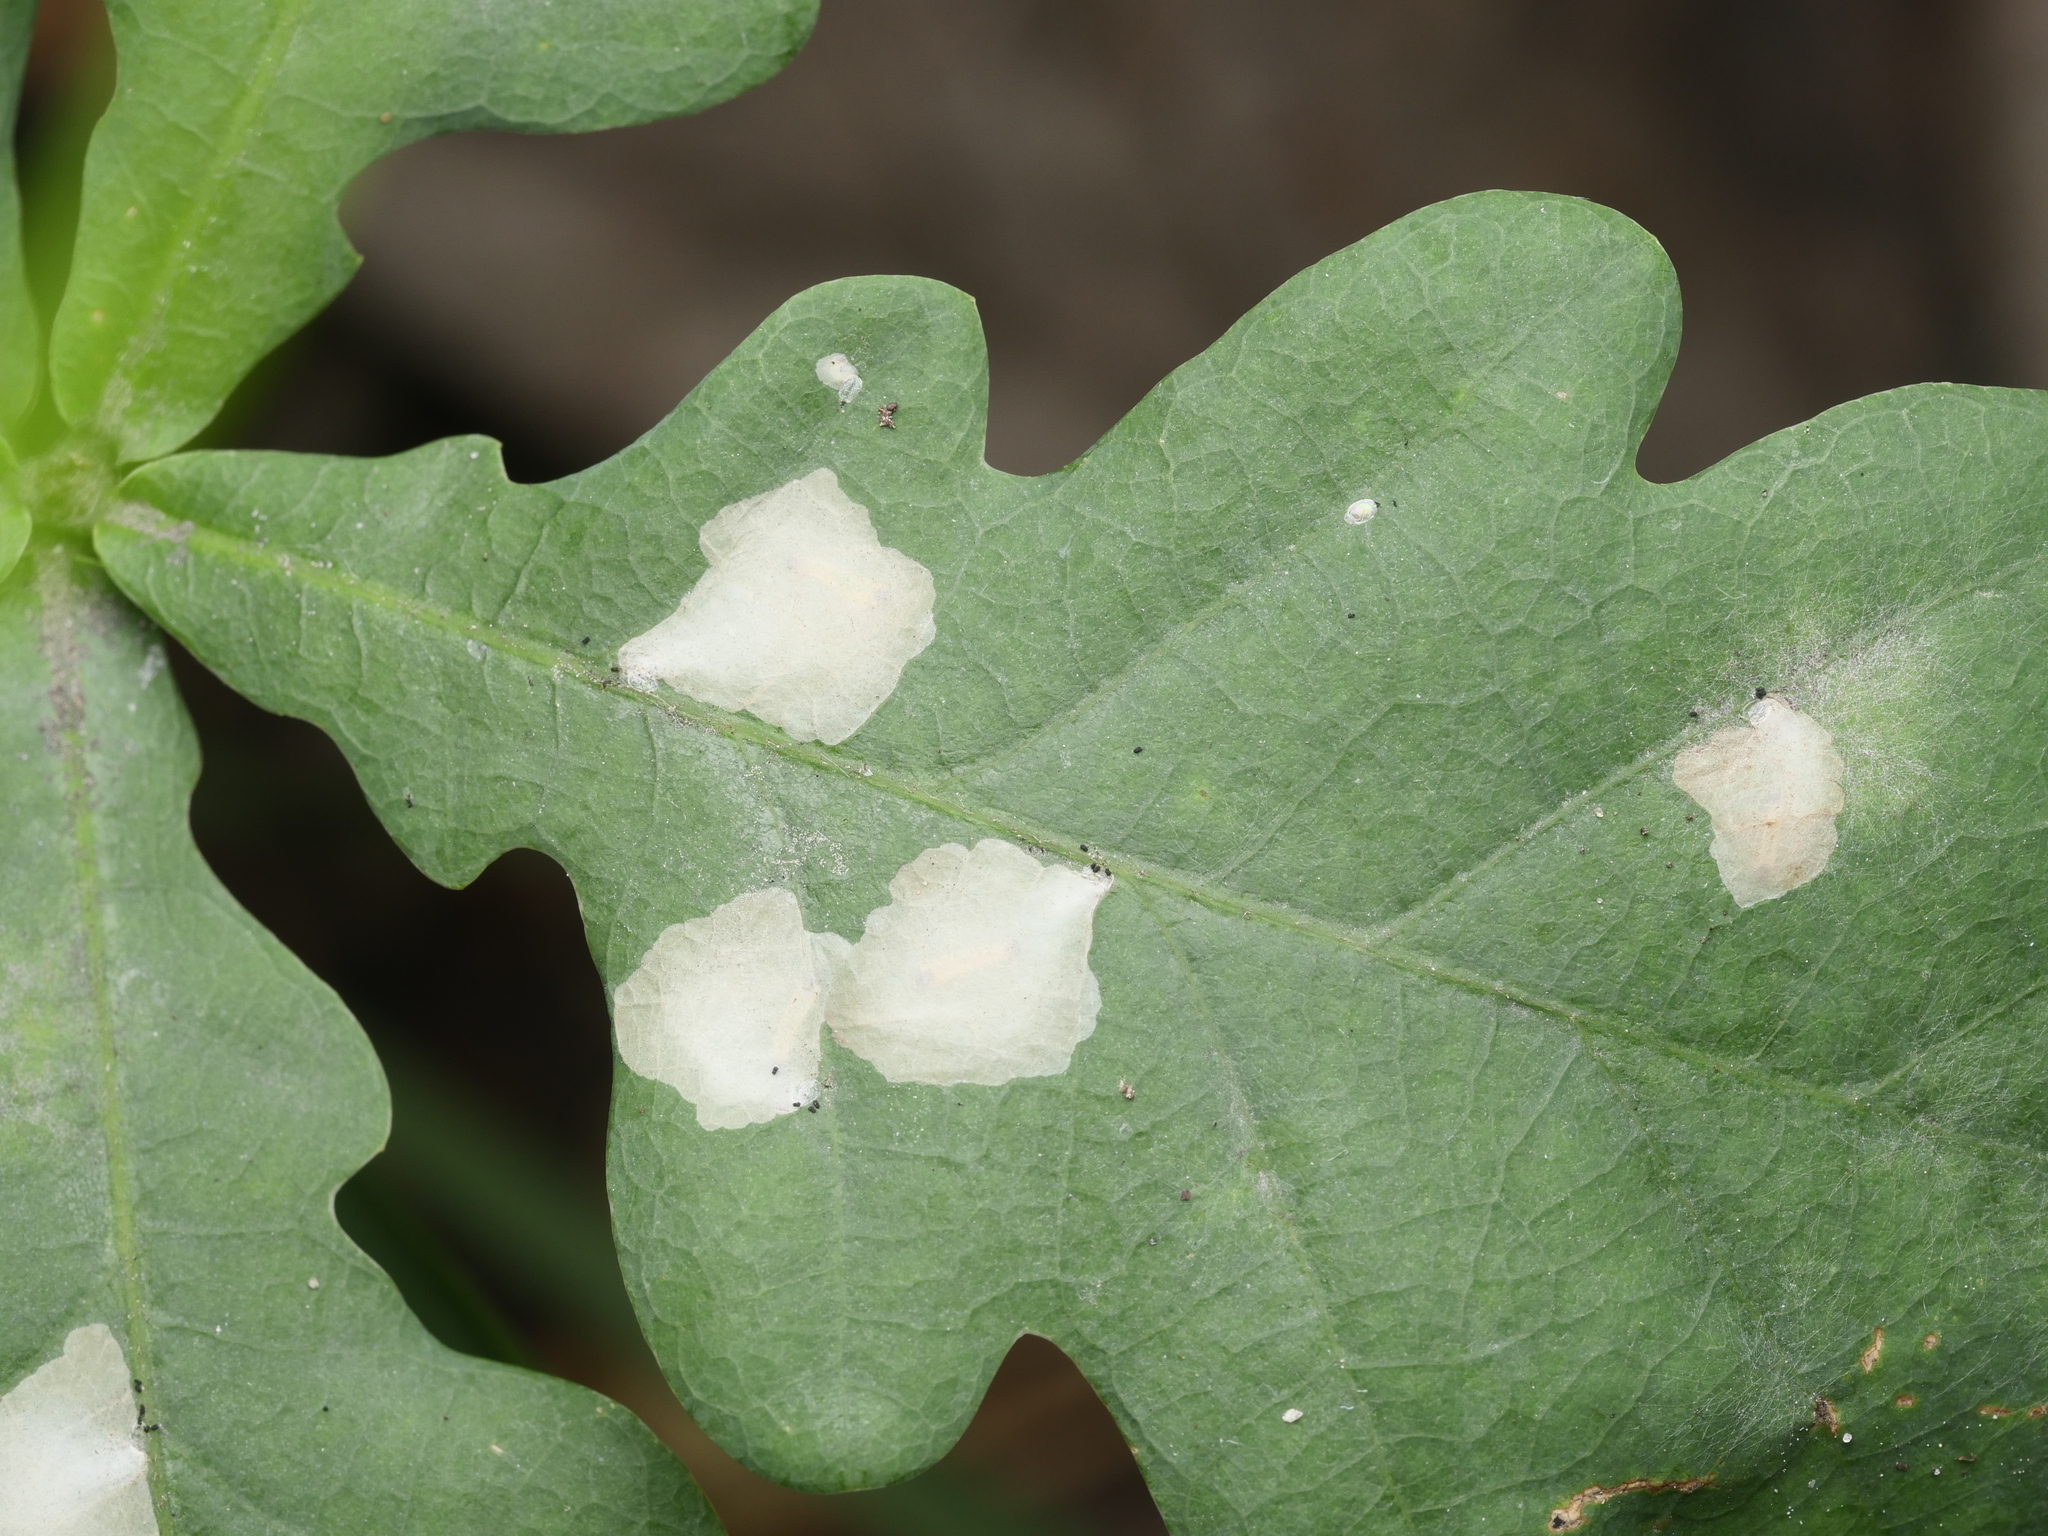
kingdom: Animalia
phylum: Arthropoda
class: Insecta
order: Lepidoptera
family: Tischeriidae
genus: Tischeria
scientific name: Tischeria ekebladella
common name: Oak carl
